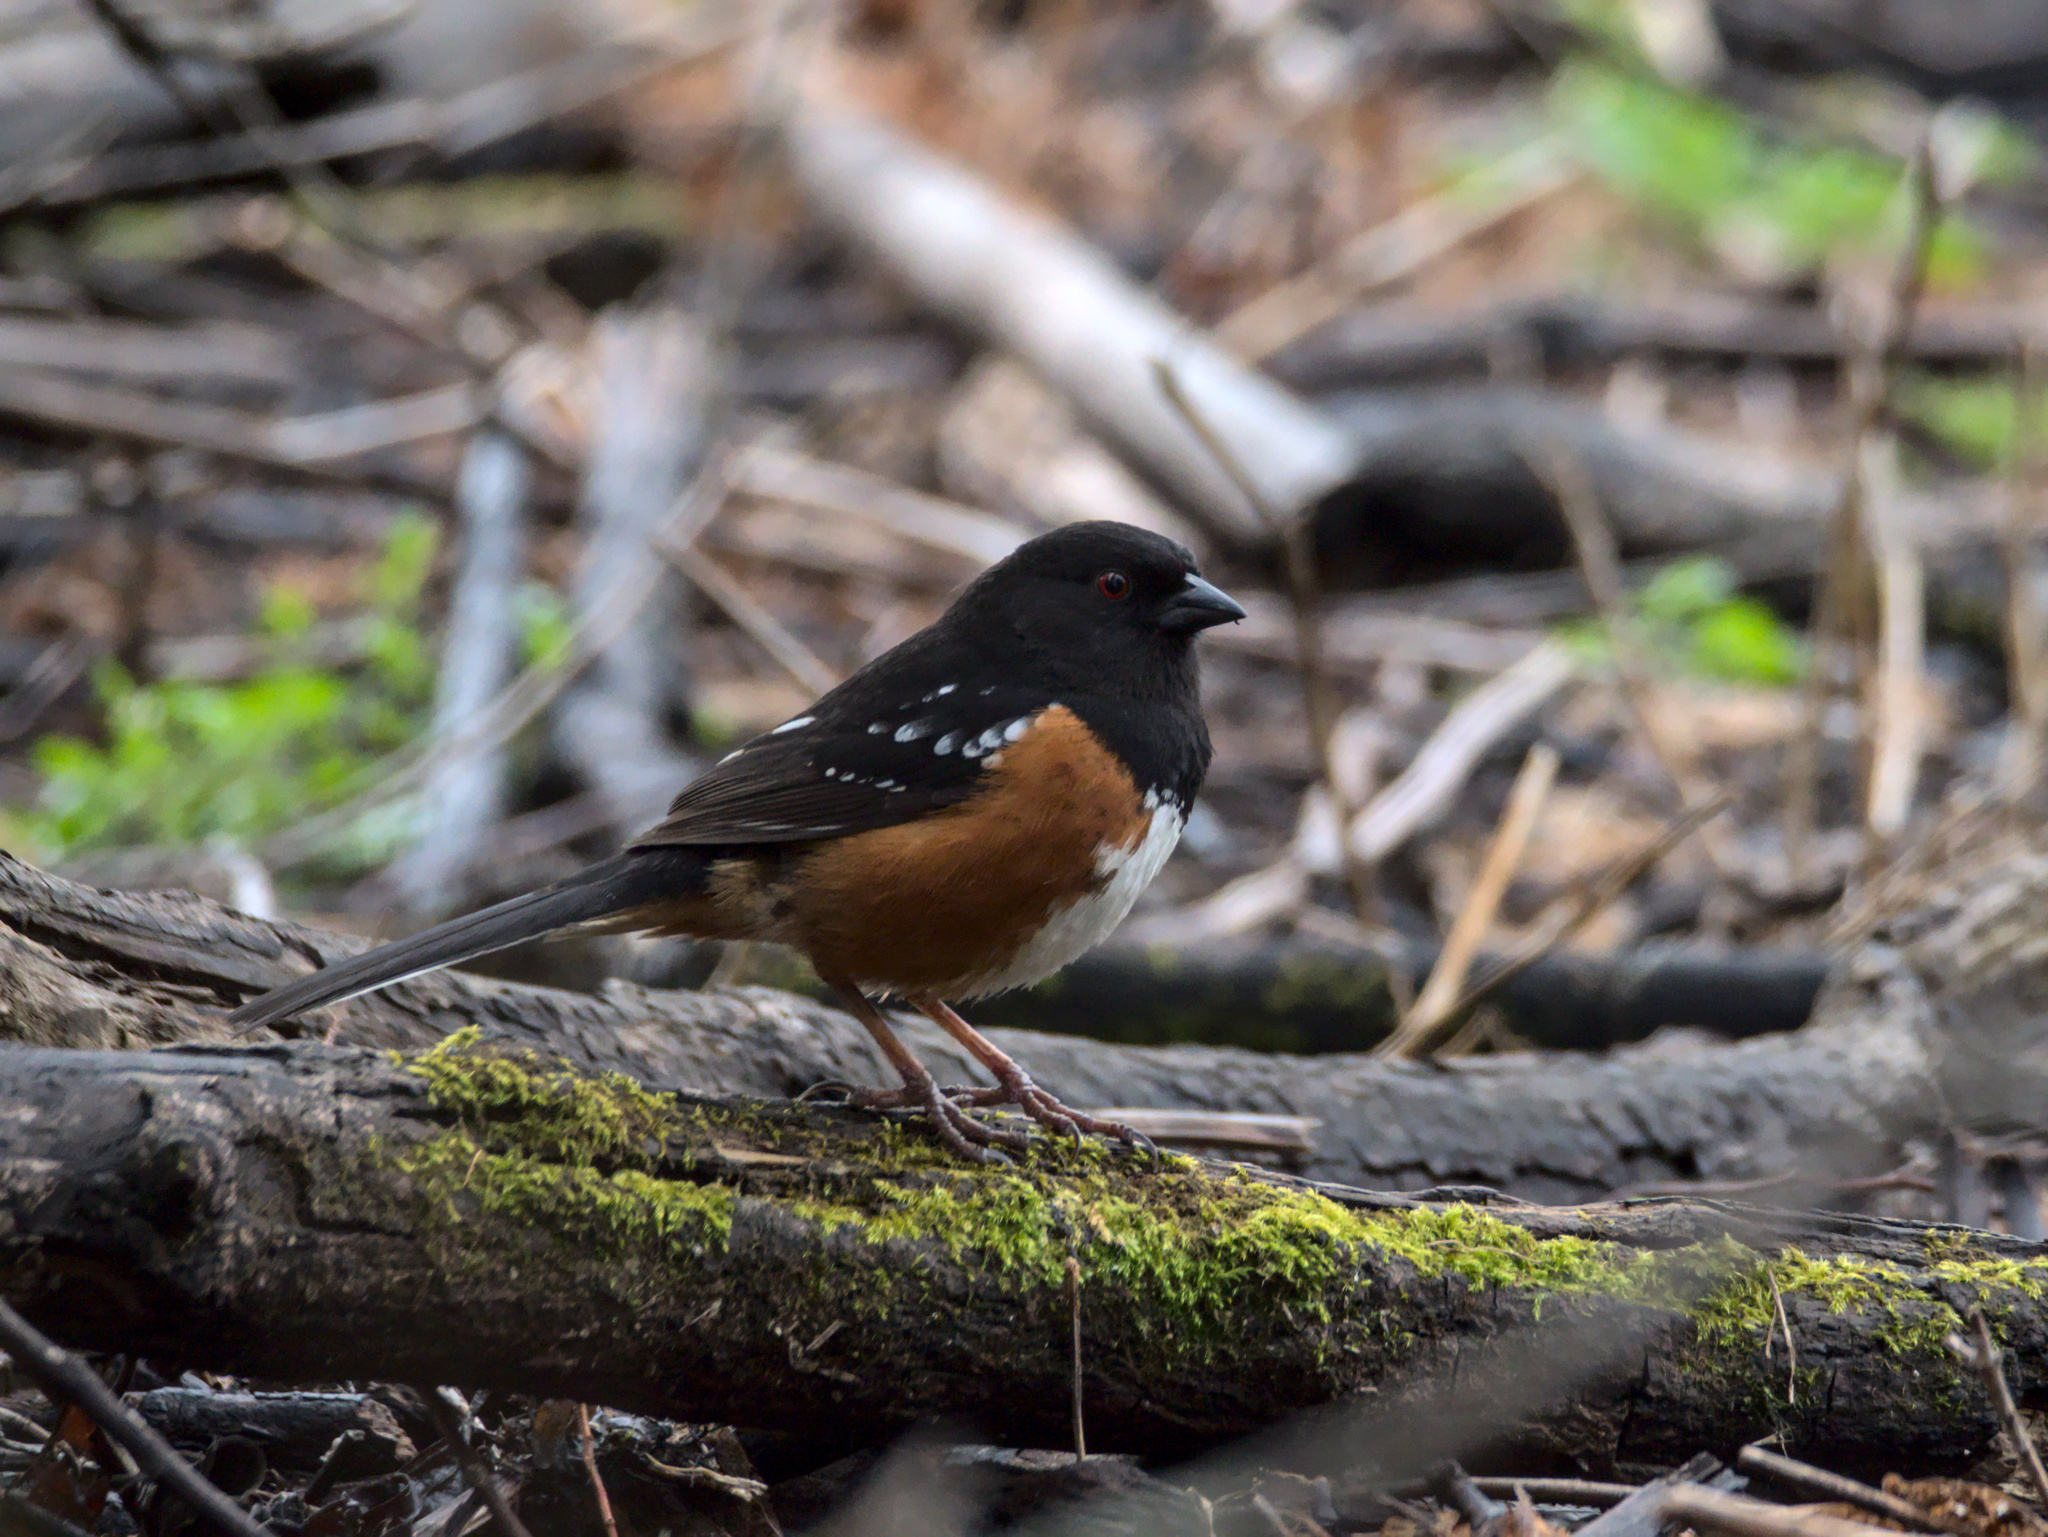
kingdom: Animalia
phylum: Chordata
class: Aves
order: Passeriformes
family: Passerellidae
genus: Pipilo
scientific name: Pipilo maculatus
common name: Spotted towhee
